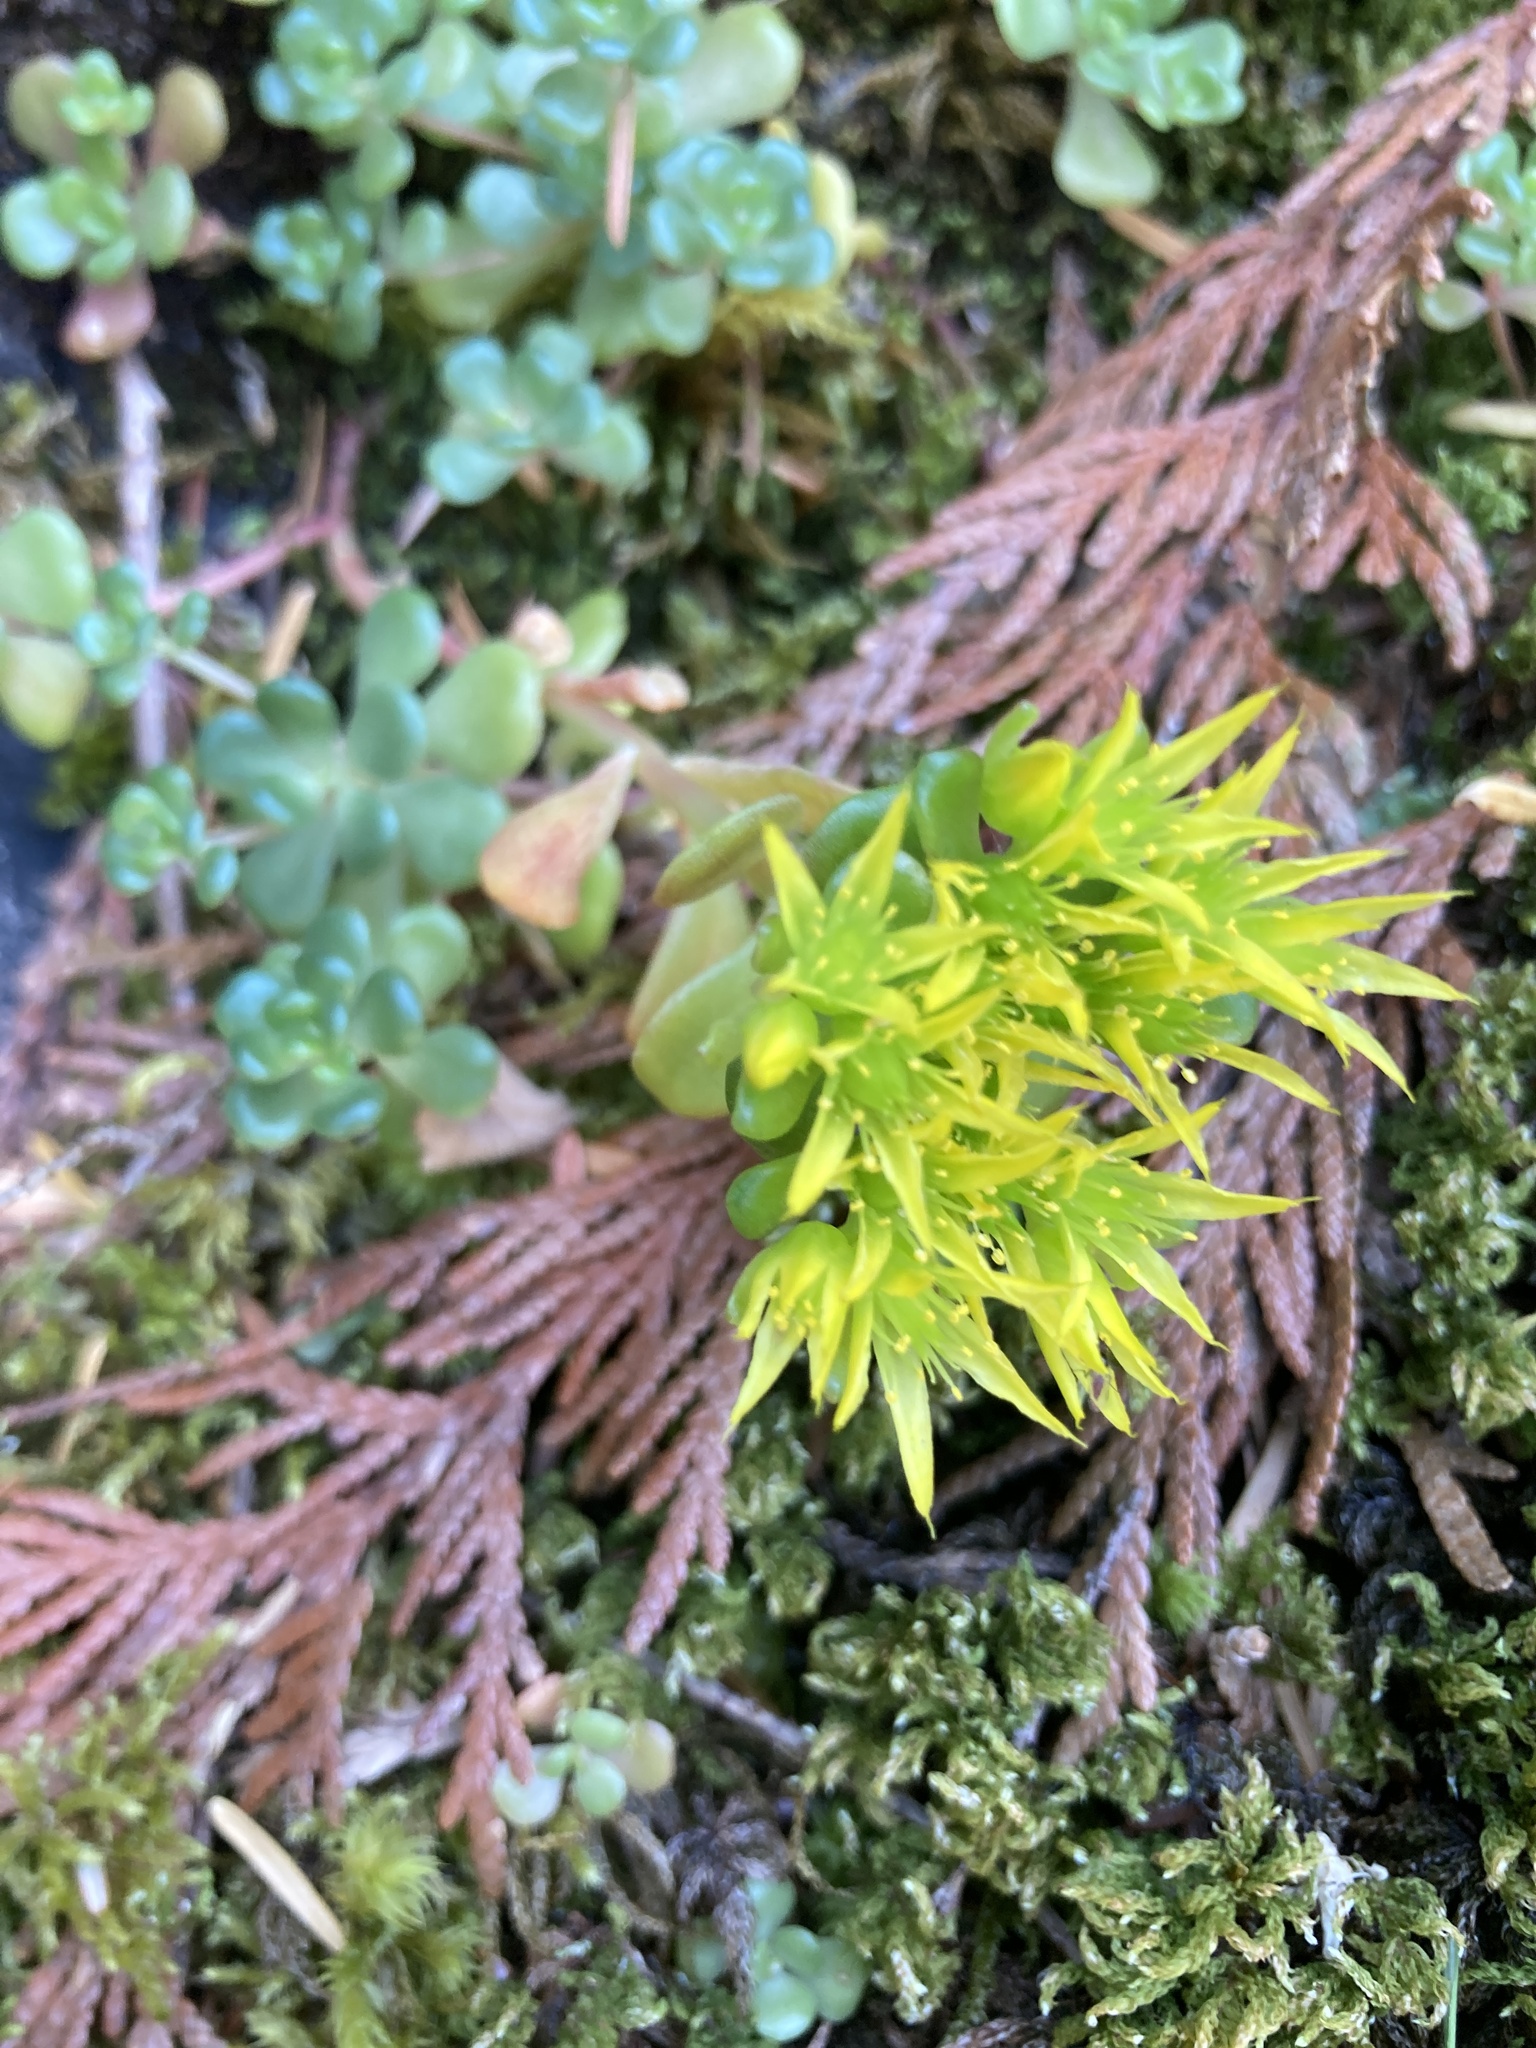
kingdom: Plantae
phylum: Tracheophyta
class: Magnoliopsida
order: Saxifragales
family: Crassulaceae
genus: Sedum
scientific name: Sedum oreganum
